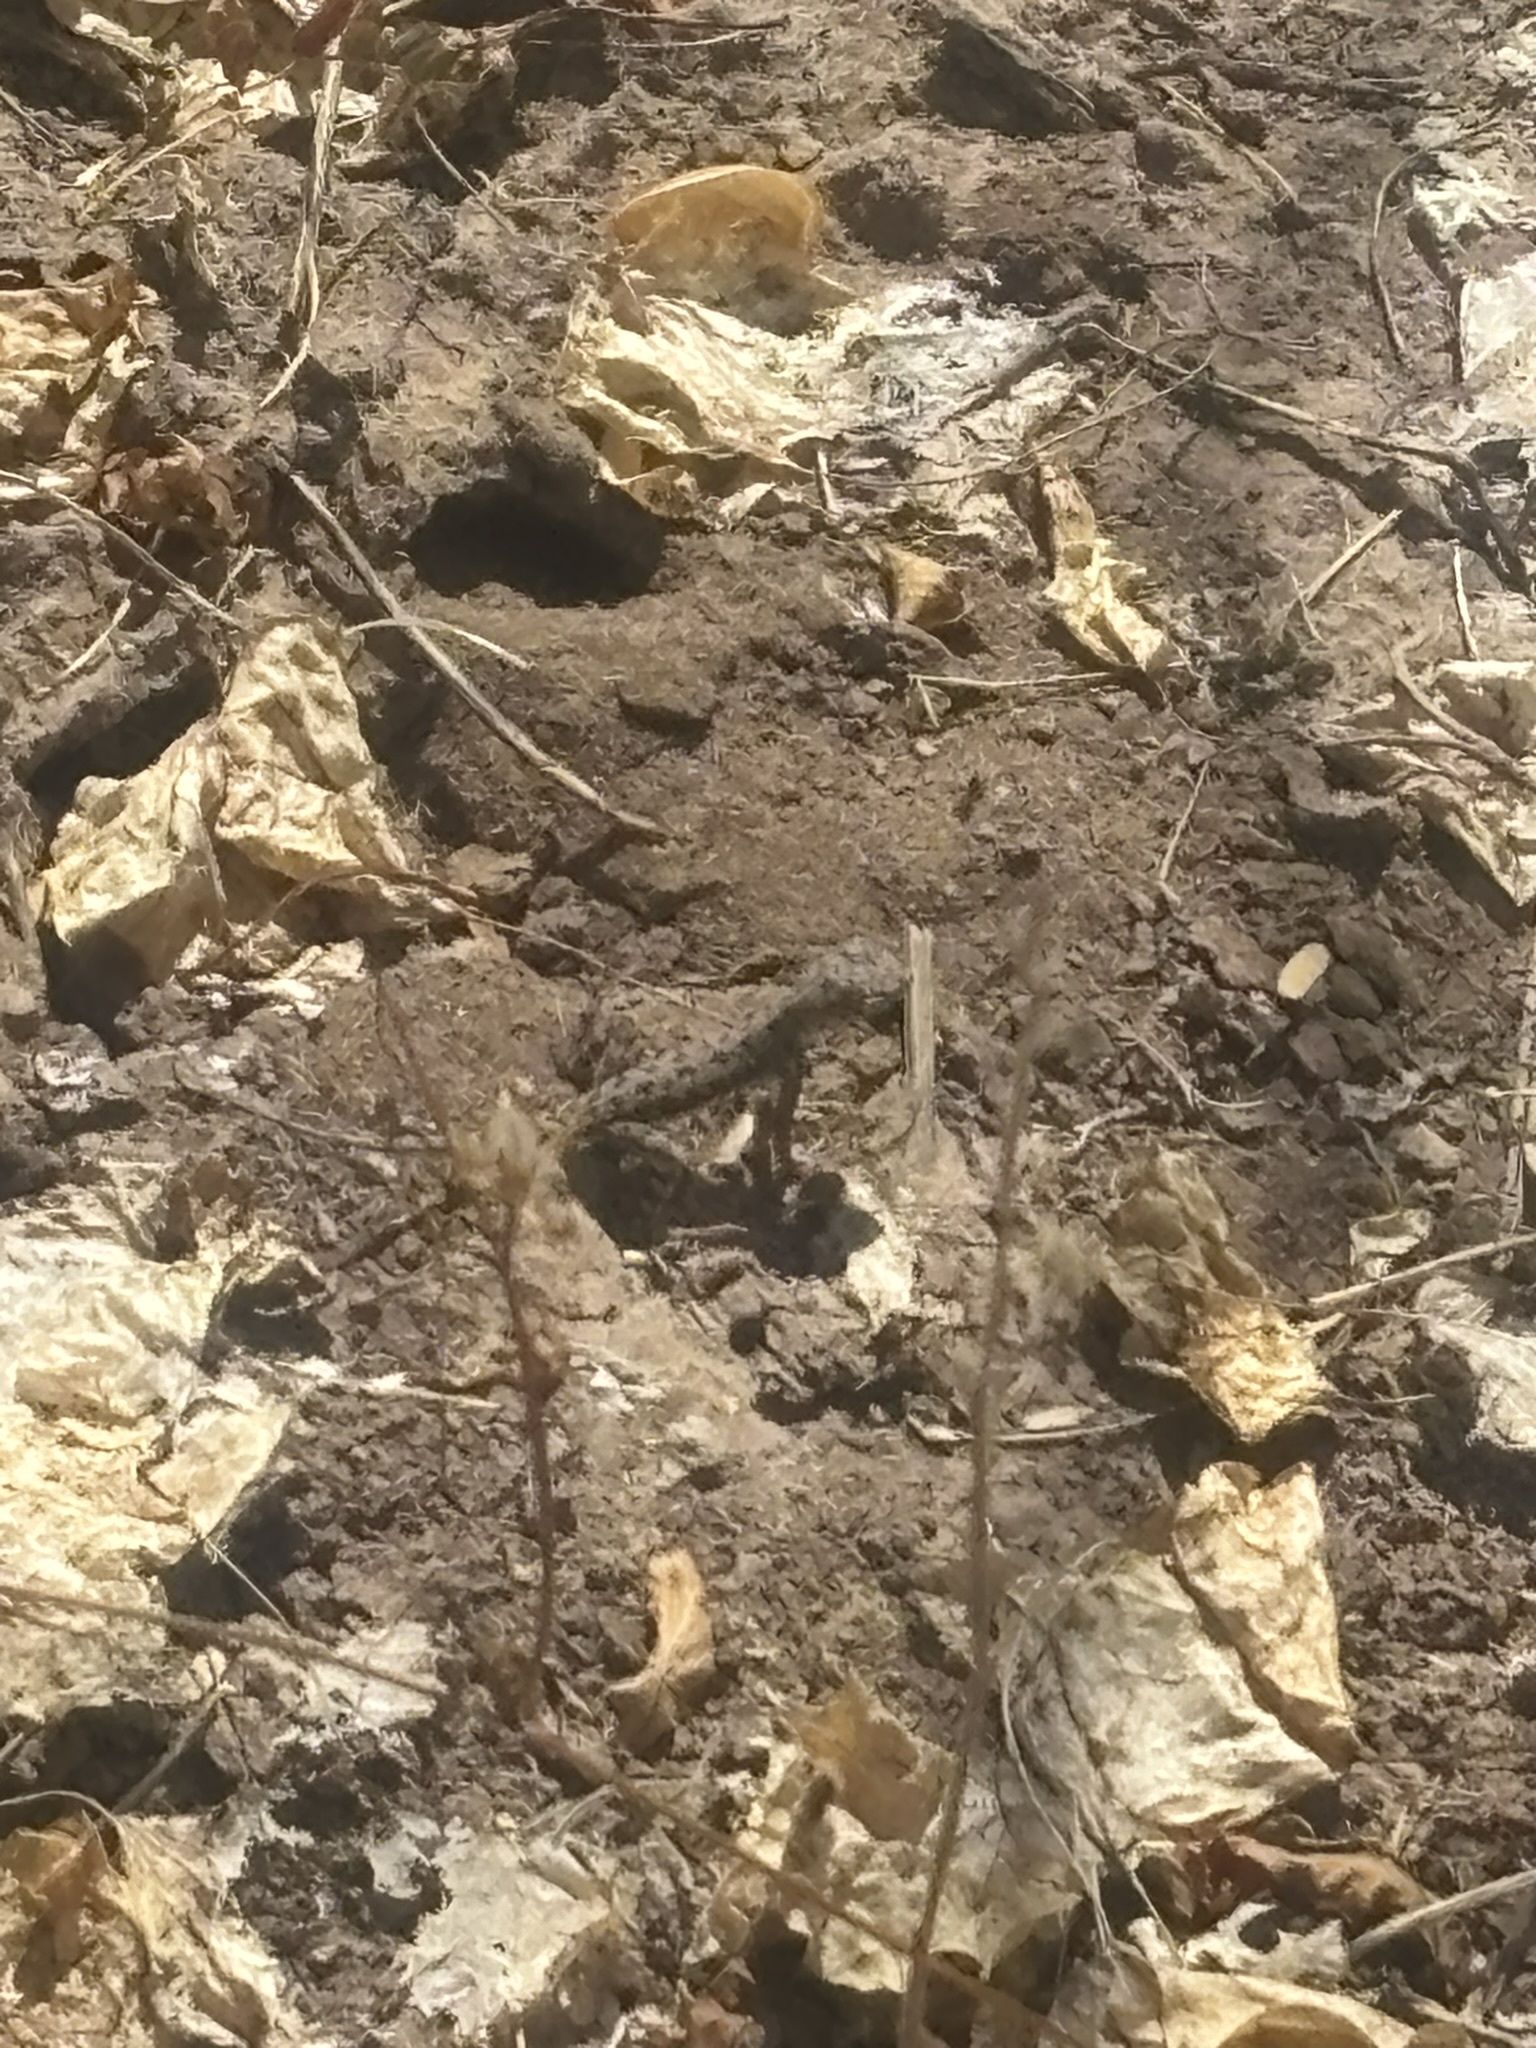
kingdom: Animalia
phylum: Chordata
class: Squamata
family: Phrynosomatidae
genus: Callisaurus
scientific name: Callisaurus draconoides
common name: Zebra-tailed lizard
